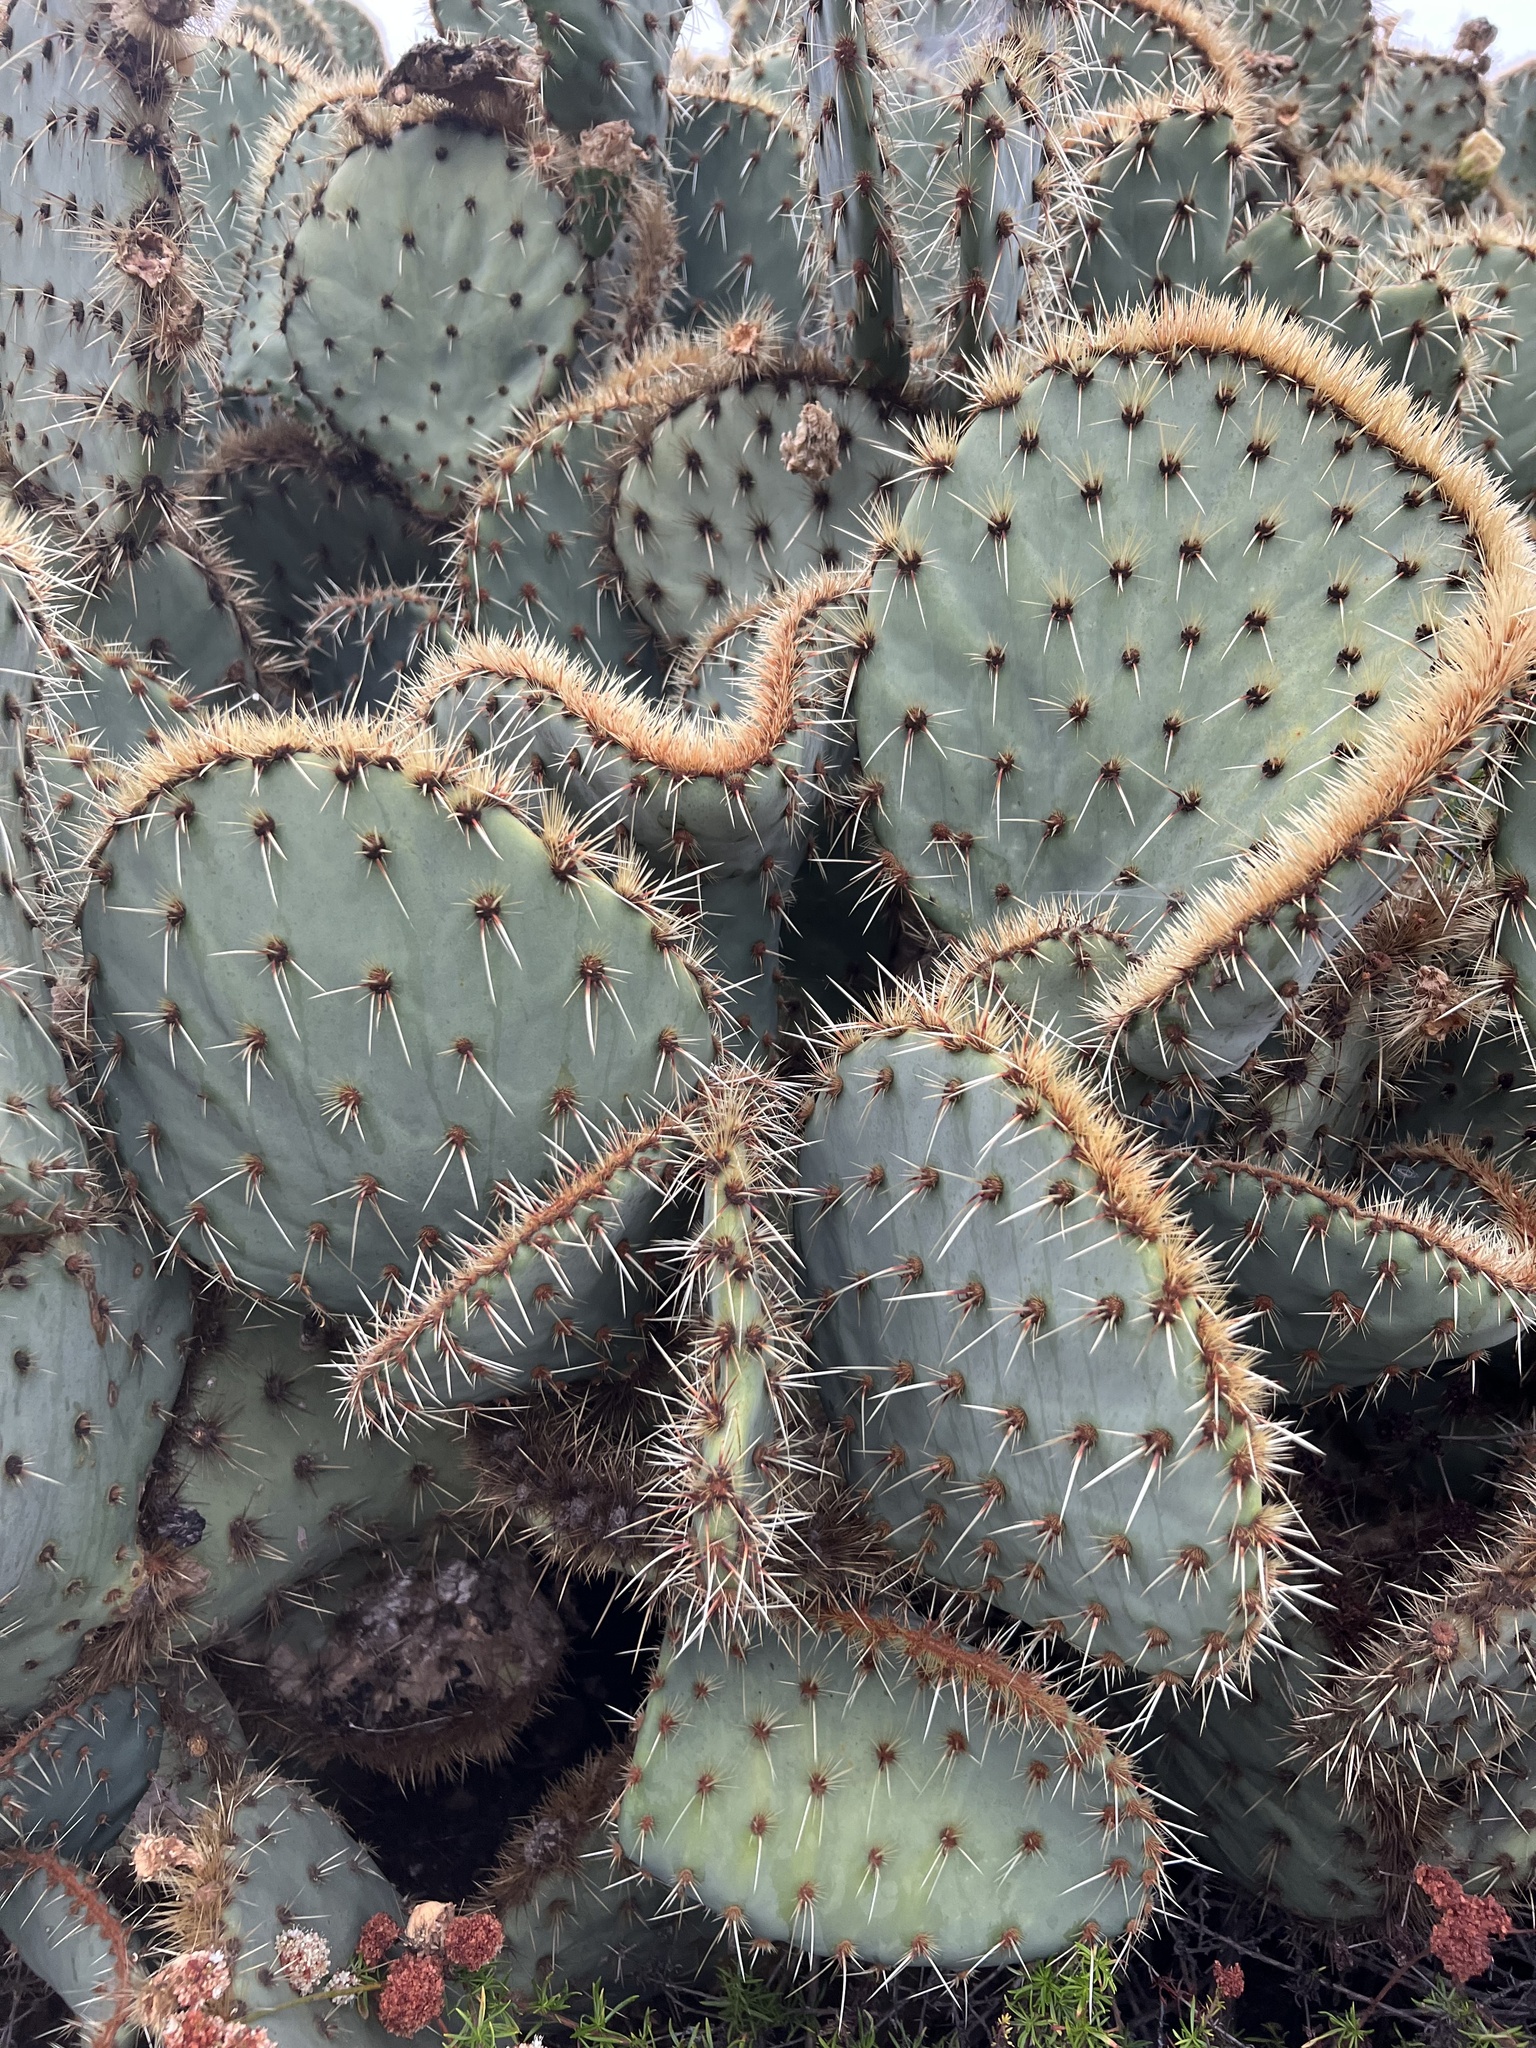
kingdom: Plantae
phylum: Tracheophyta
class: Magnoliopsida
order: Caryophyllales
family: Cactaceae
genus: Opuntia
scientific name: Opuntia chlorotica
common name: Dollar-joint prickly-pear
